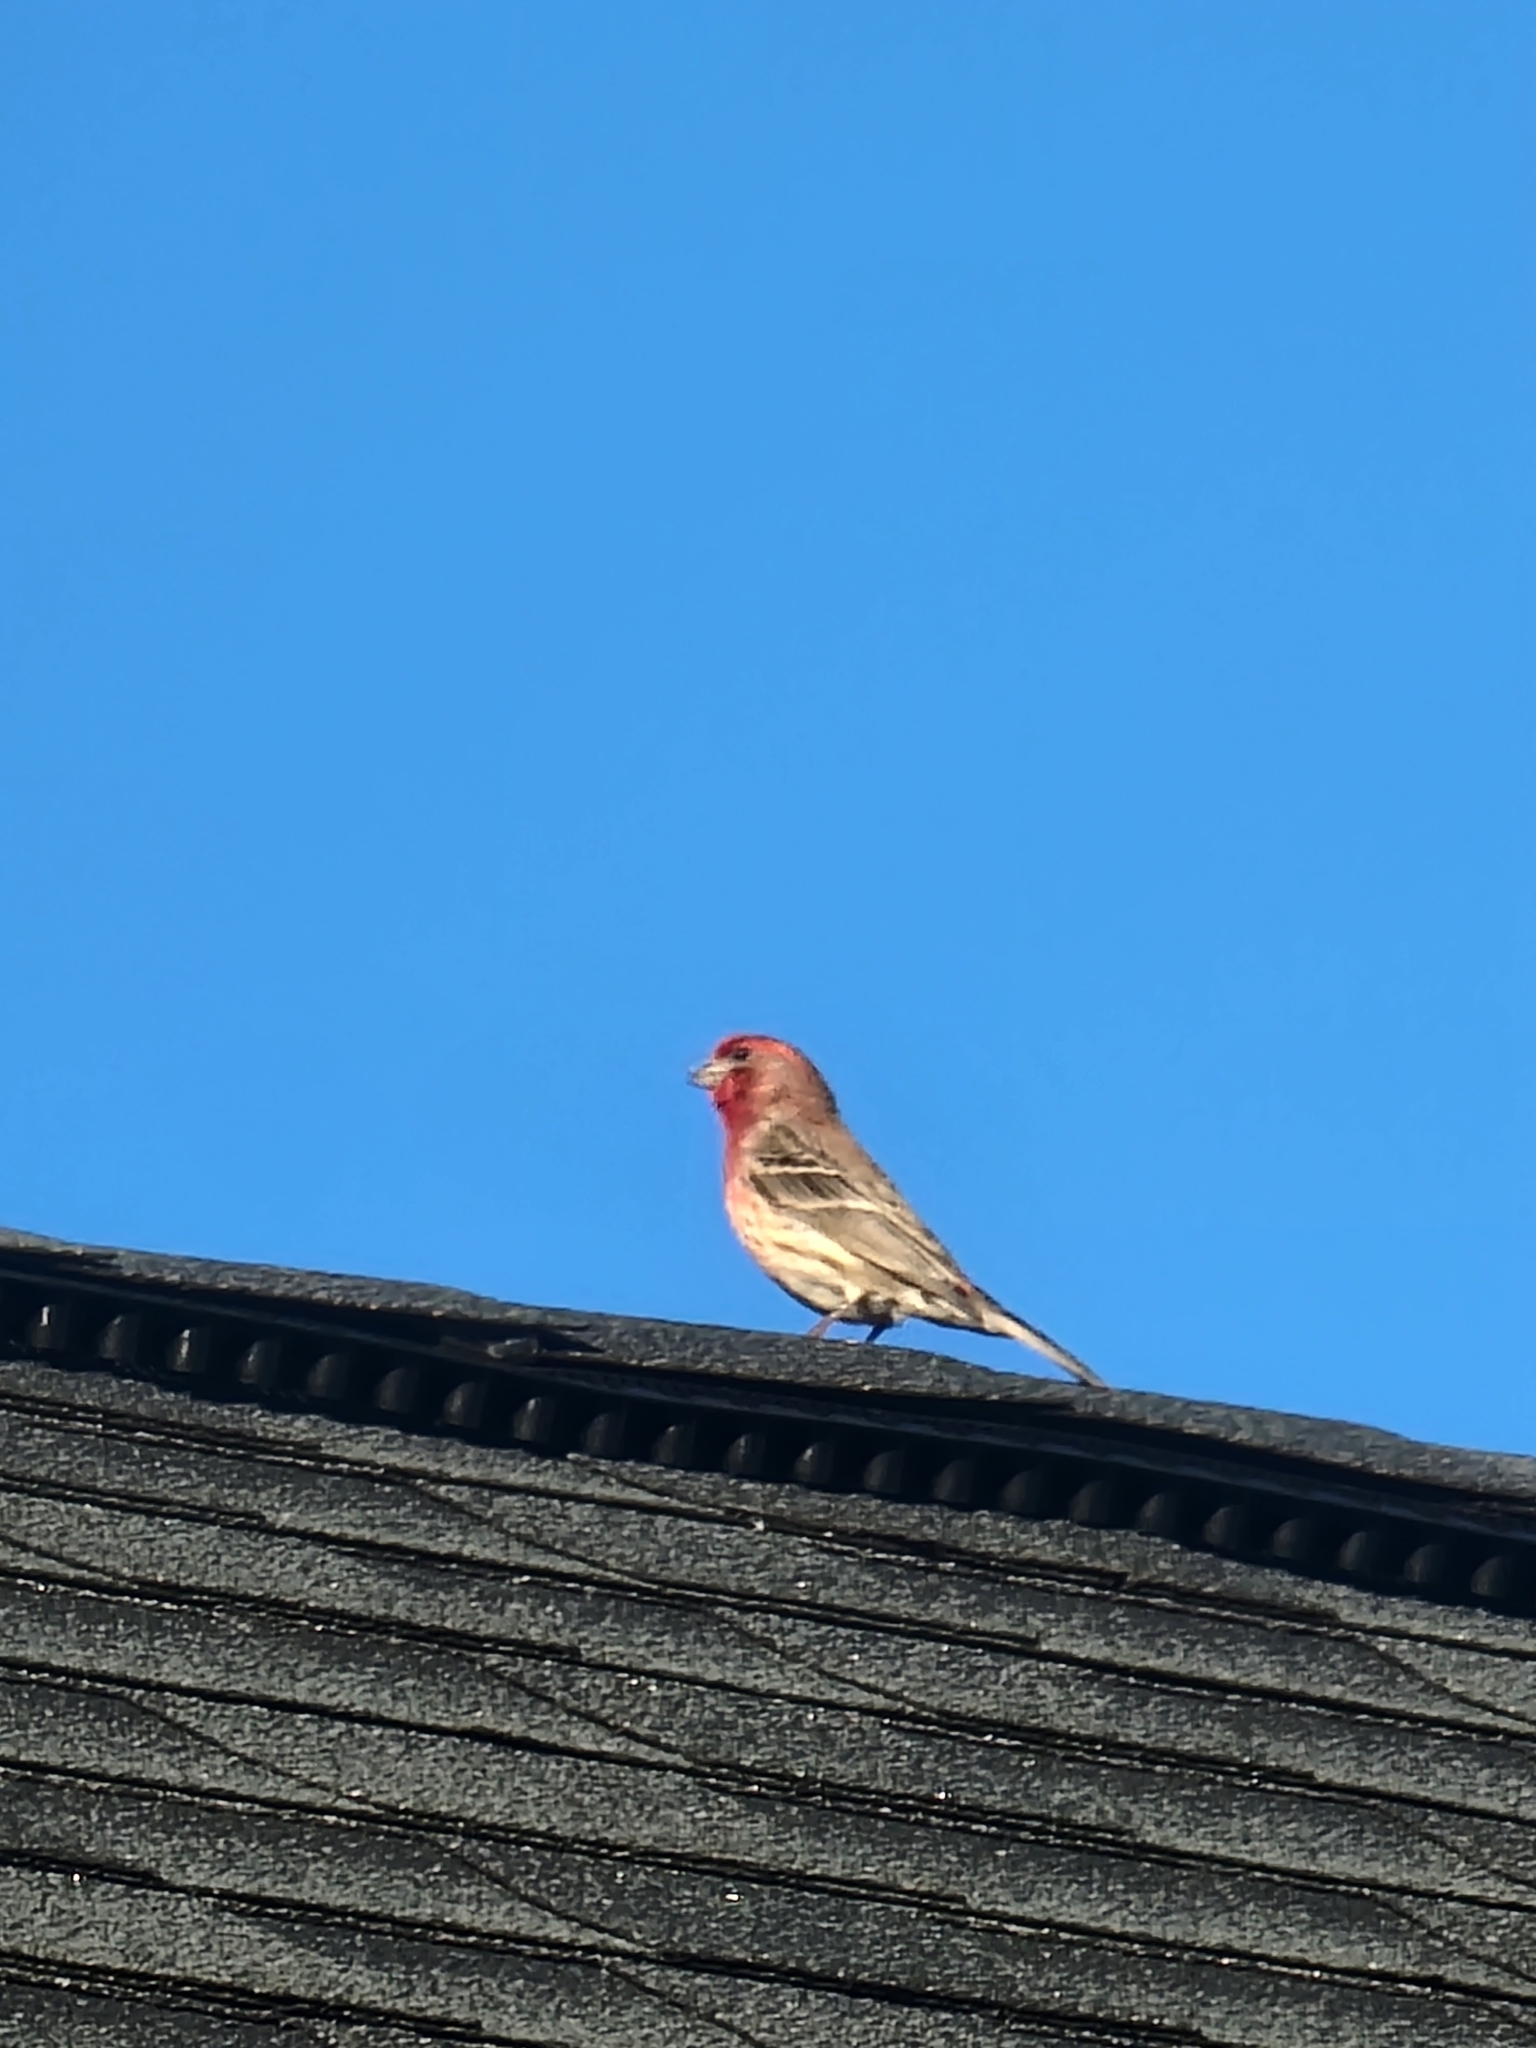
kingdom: Animalia
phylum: Chordata
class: Aves
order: Passeriformes
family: Fringillidae
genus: Haemorhous
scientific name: Haemorhous mexicanus
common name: House finch
